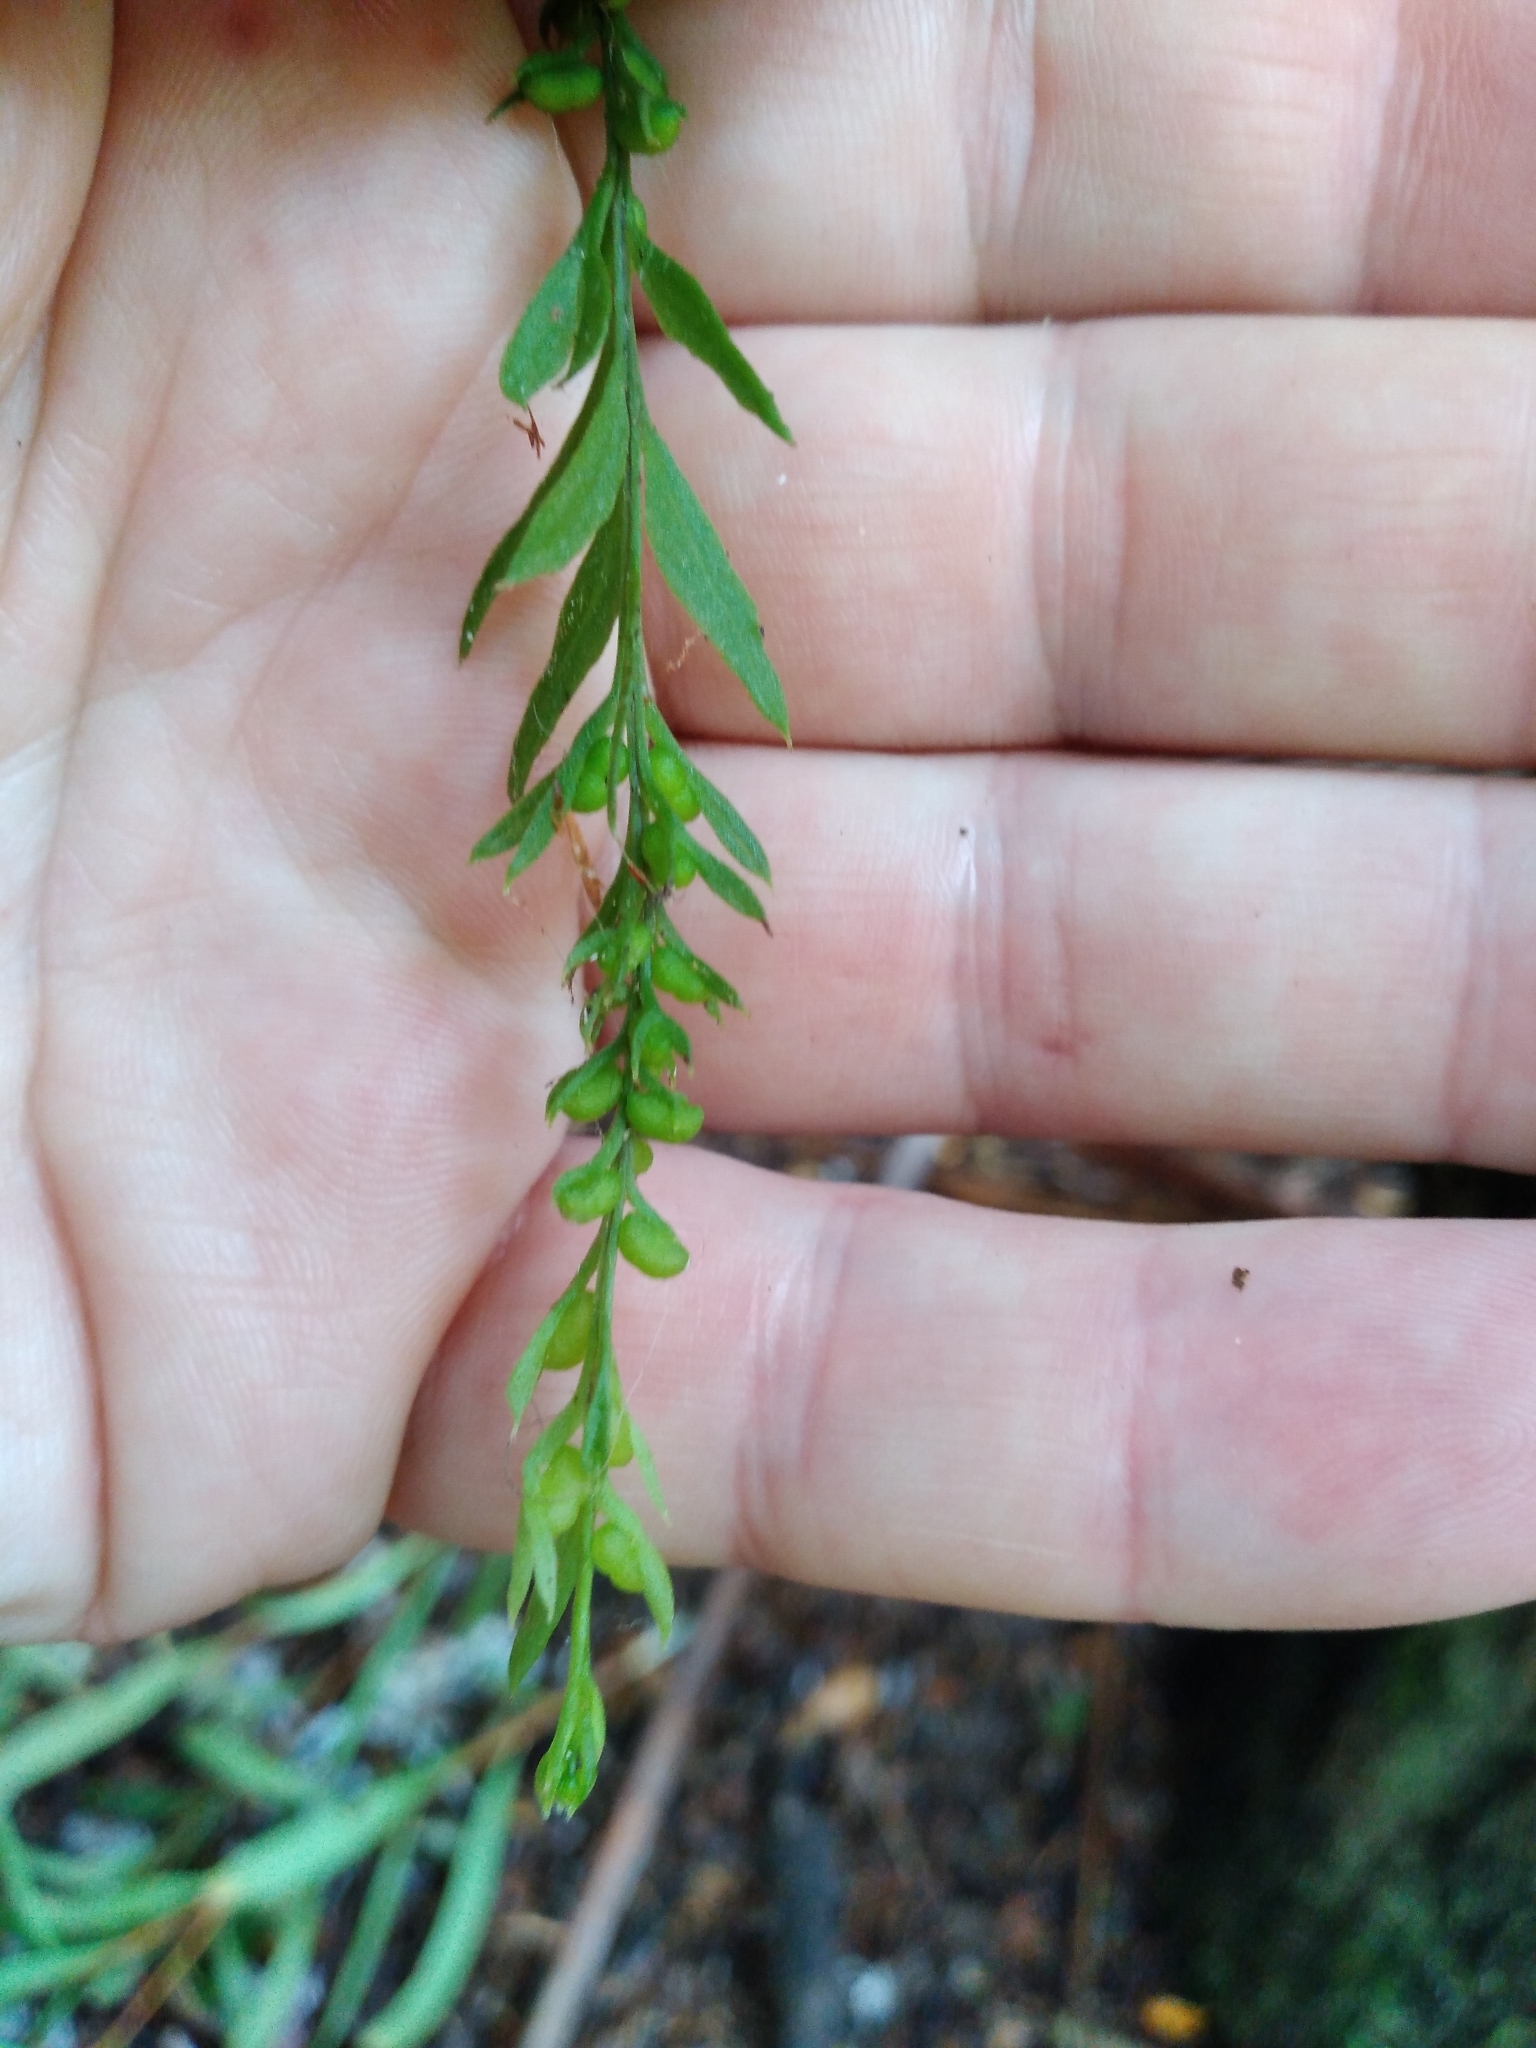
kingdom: Plantae
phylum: Tracheophyta
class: Polypodiopsida
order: Psilotales
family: Psilotaceae
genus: Tmesipteris
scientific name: Tmesipteris elongata
